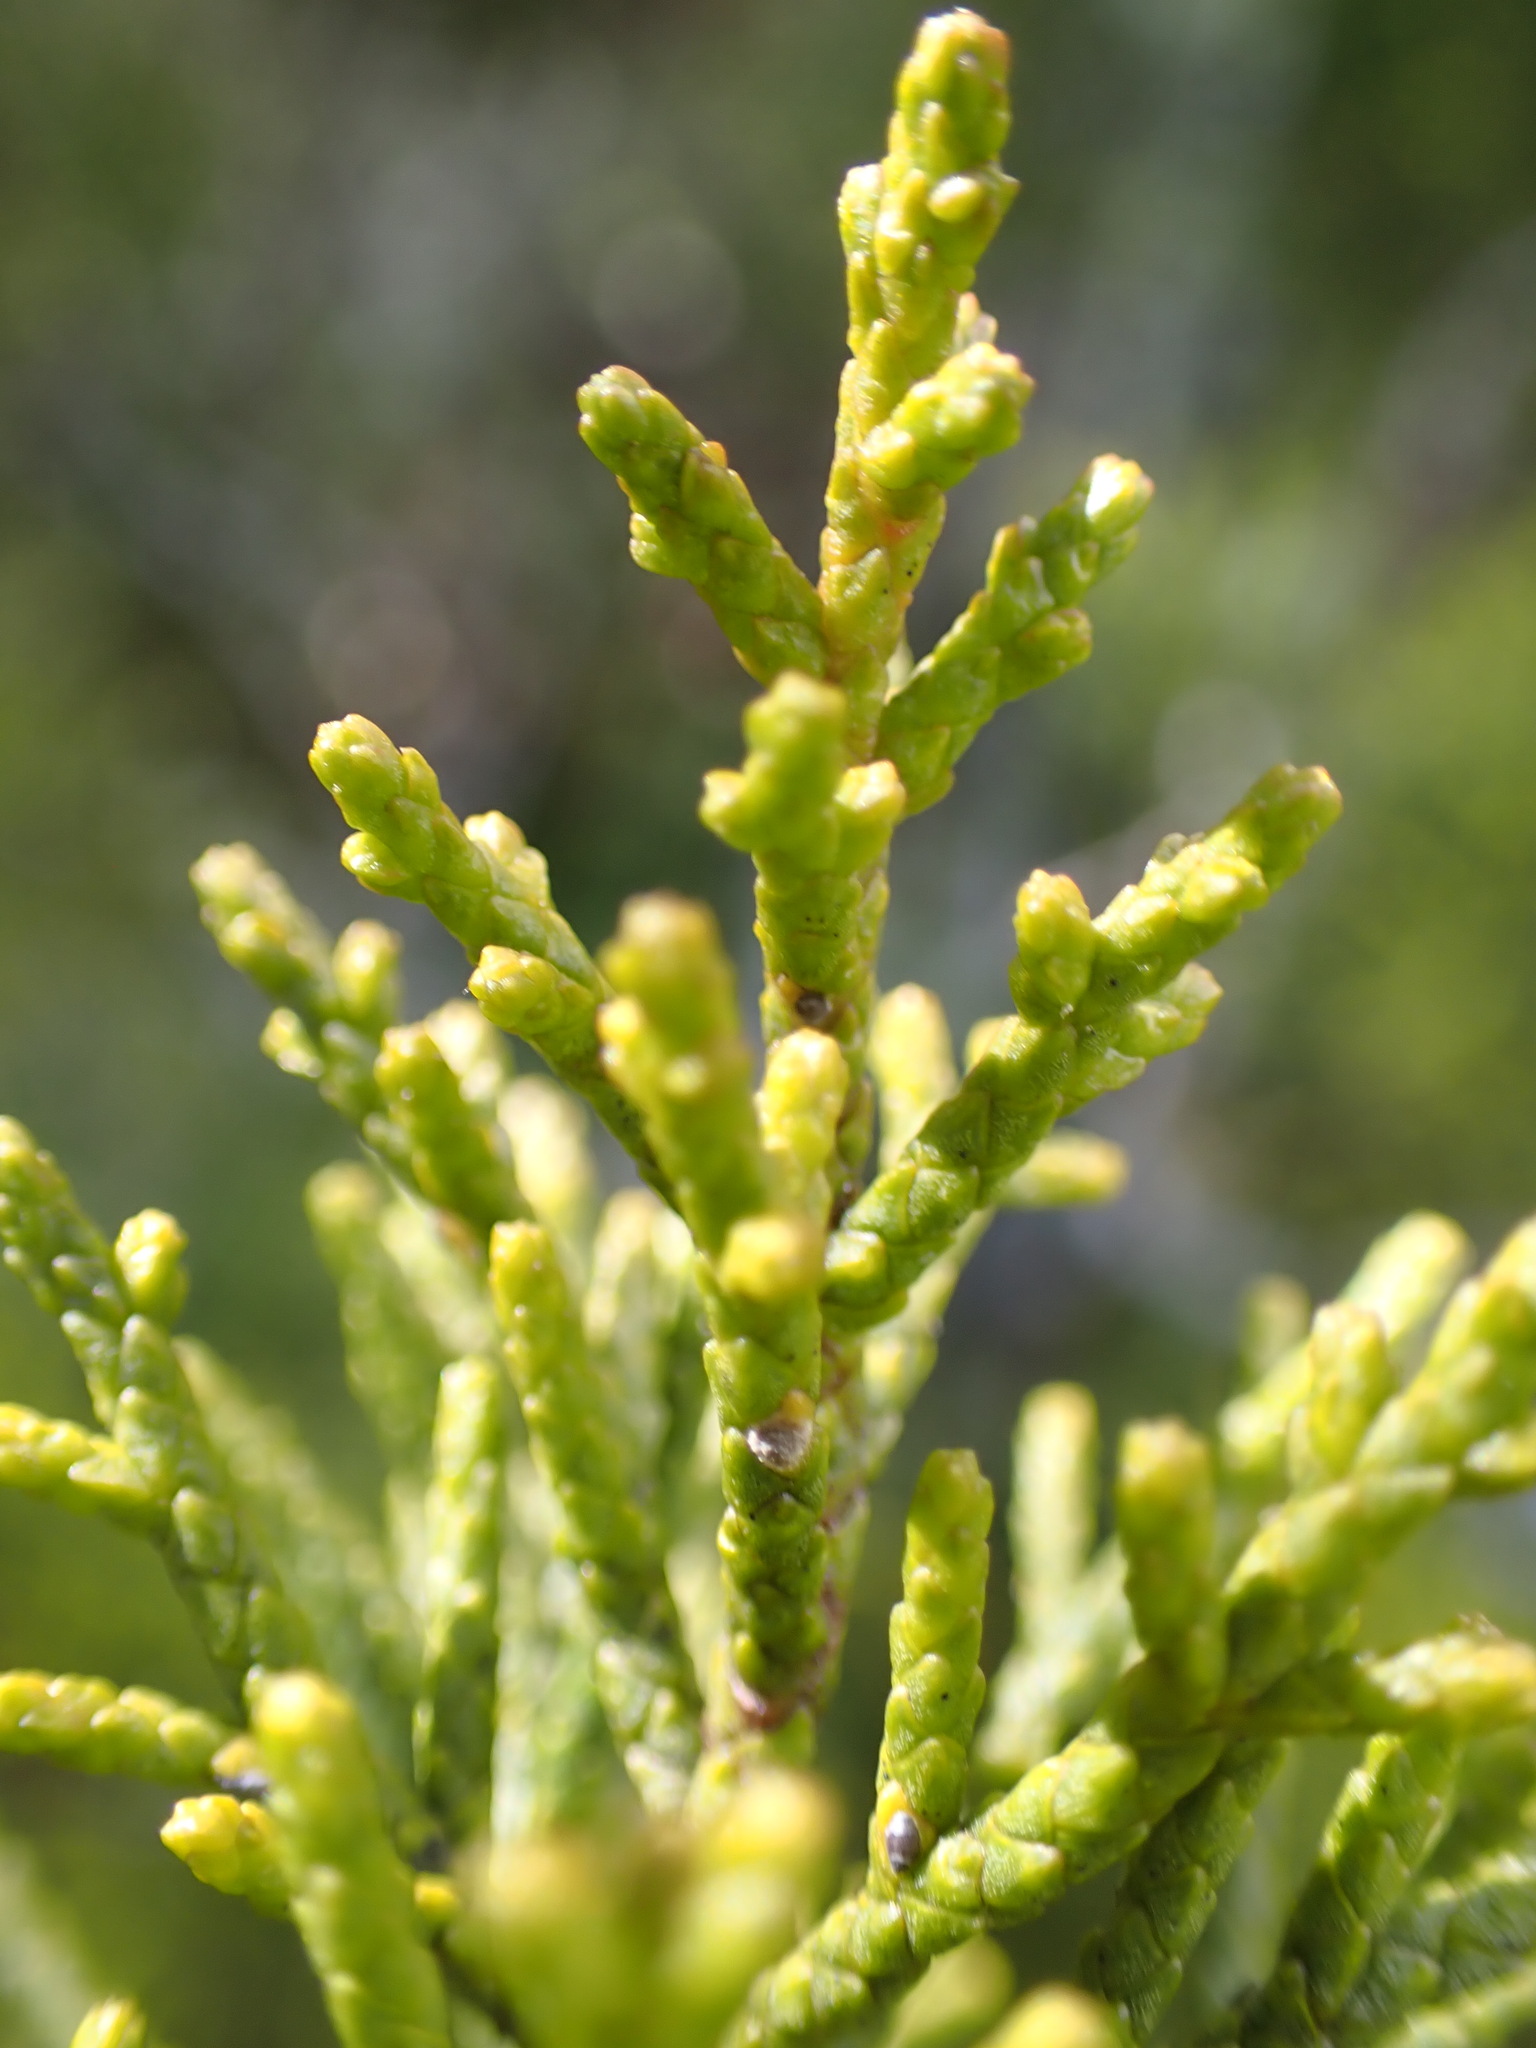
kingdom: Plantae
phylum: Tracheophyta
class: Pinopsida
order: Pinales
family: Podocarpaceae
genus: Halocarpus
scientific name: Halocarpus bidwillii
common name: Bog pine
